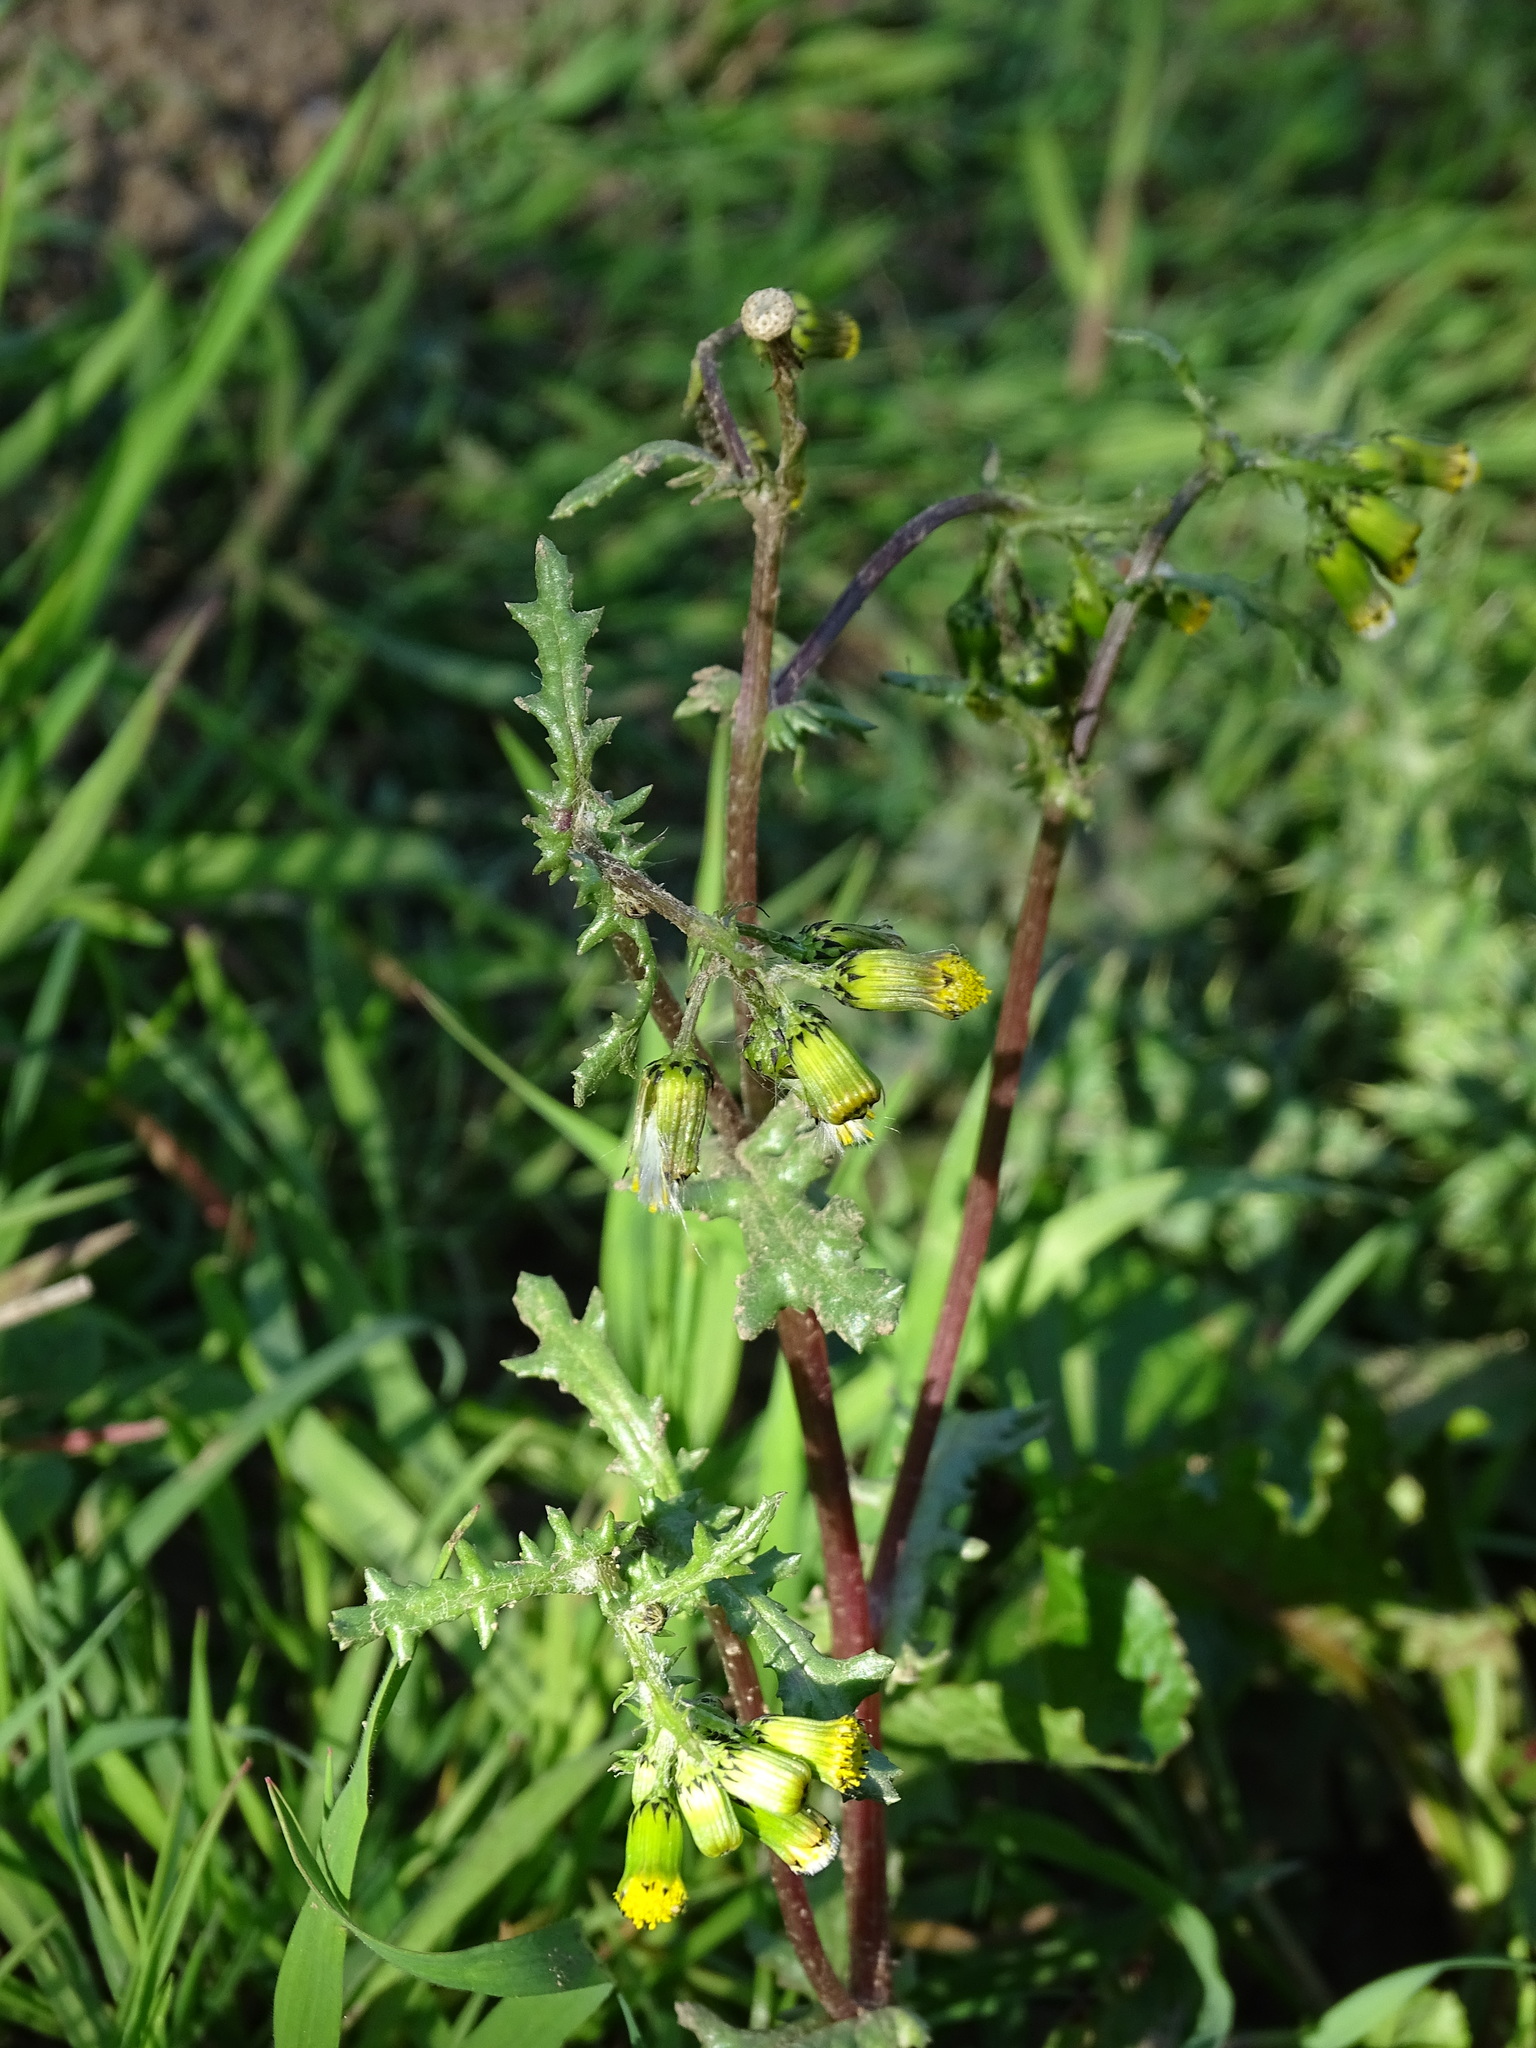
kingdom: Plantae
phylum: Tracheophyta
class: Magnoliopsida
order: Asterales
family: Asteraceae
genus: Senecio
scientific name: Senecio vulgaris
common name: Old-man-in-the-spring
